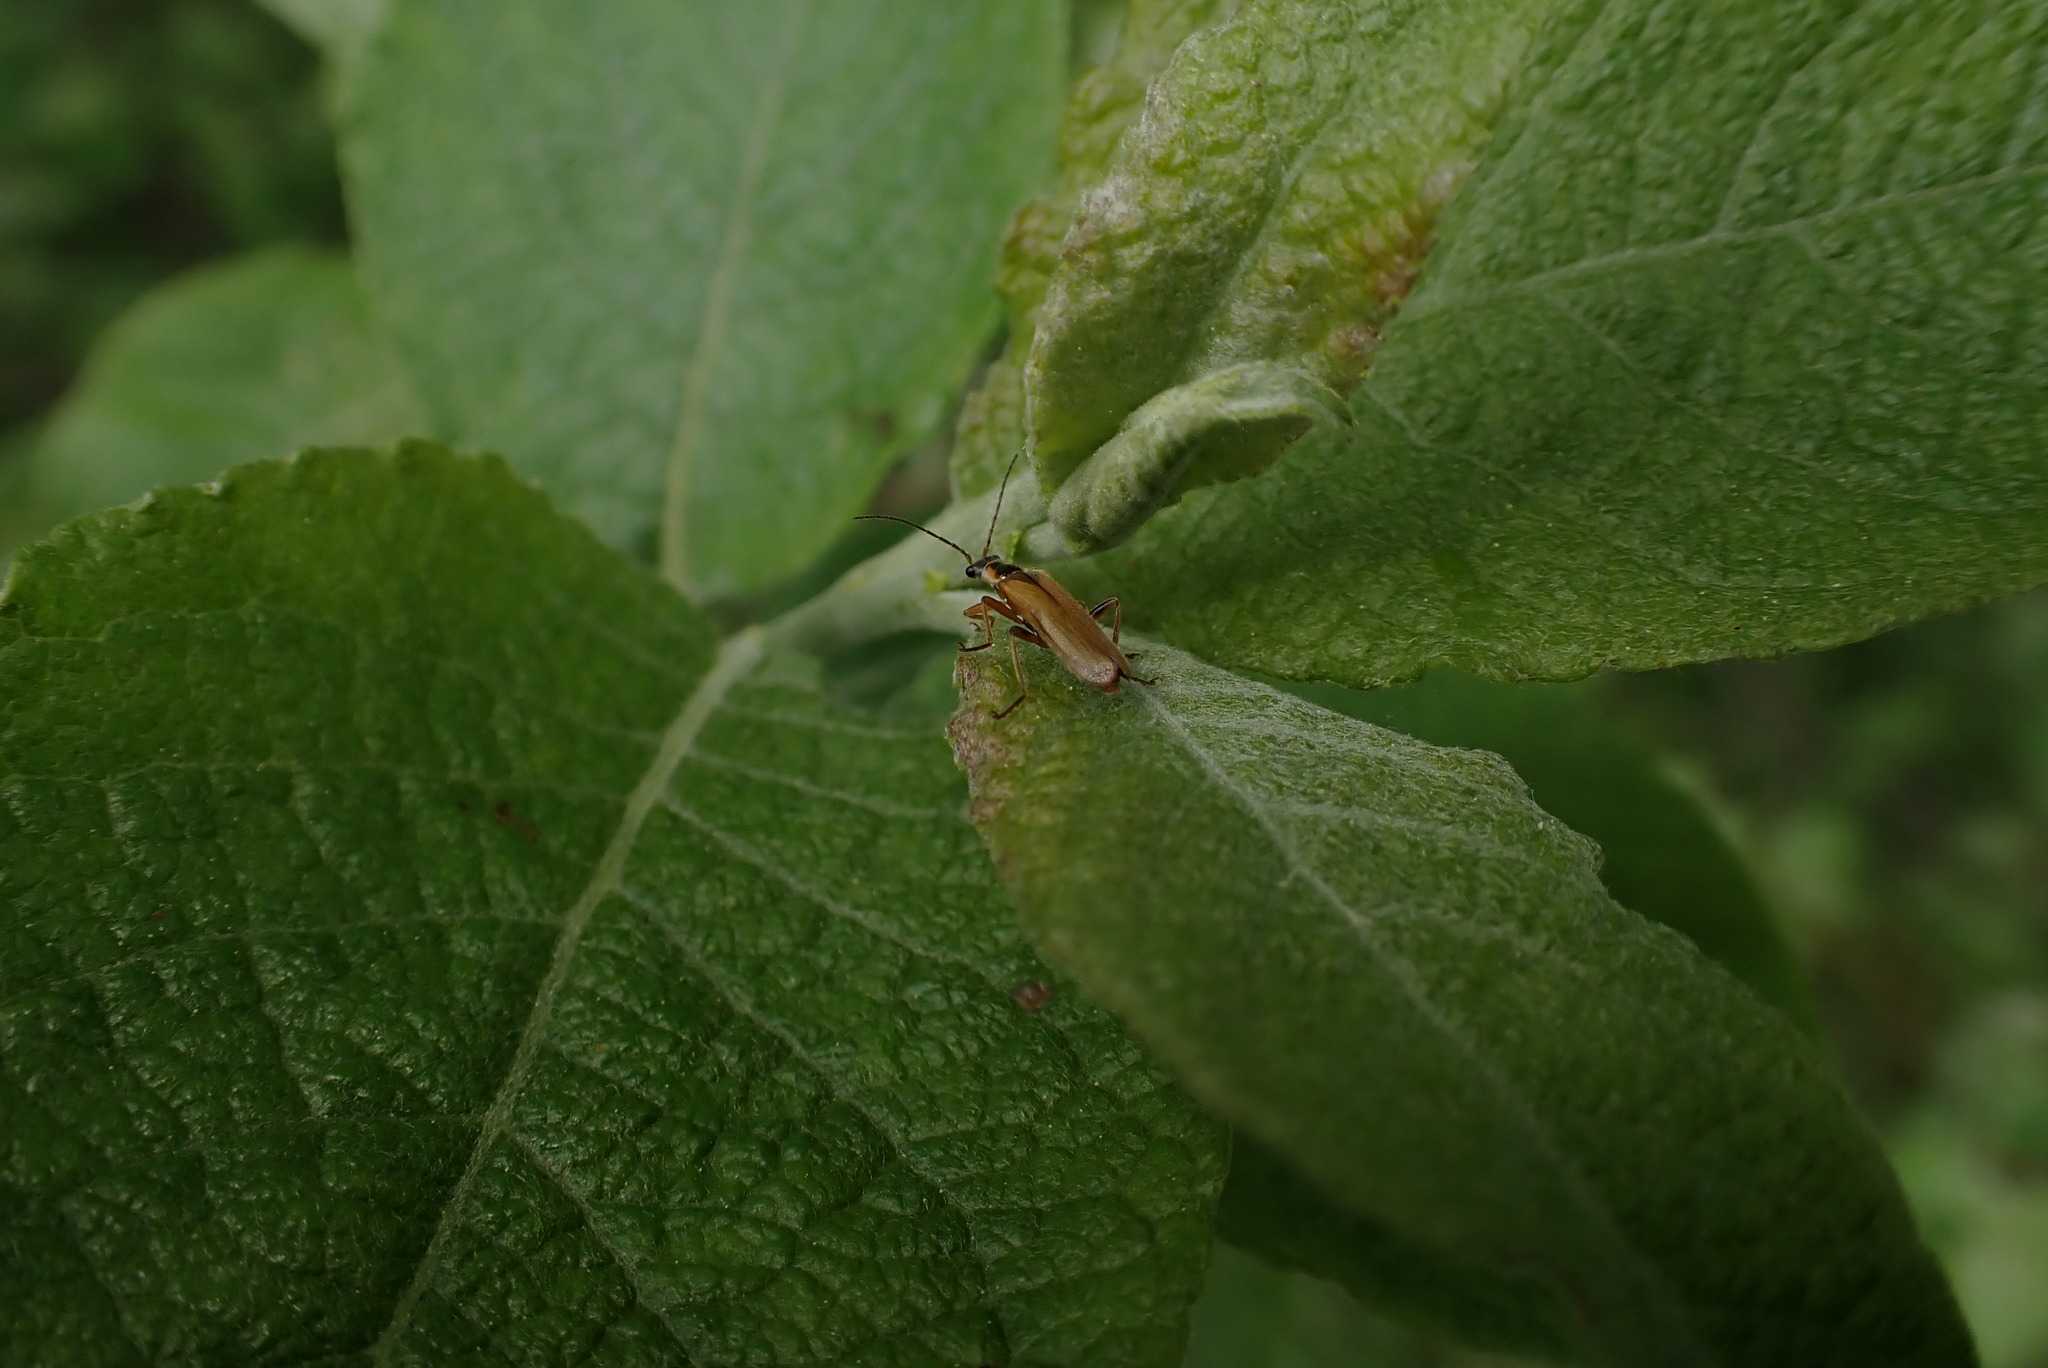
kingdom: Animalia
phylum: Arthropoda
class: Insecta
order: Coleoptera
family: Cantharidae
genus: Cantharis
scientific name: Cantharis decipiens
